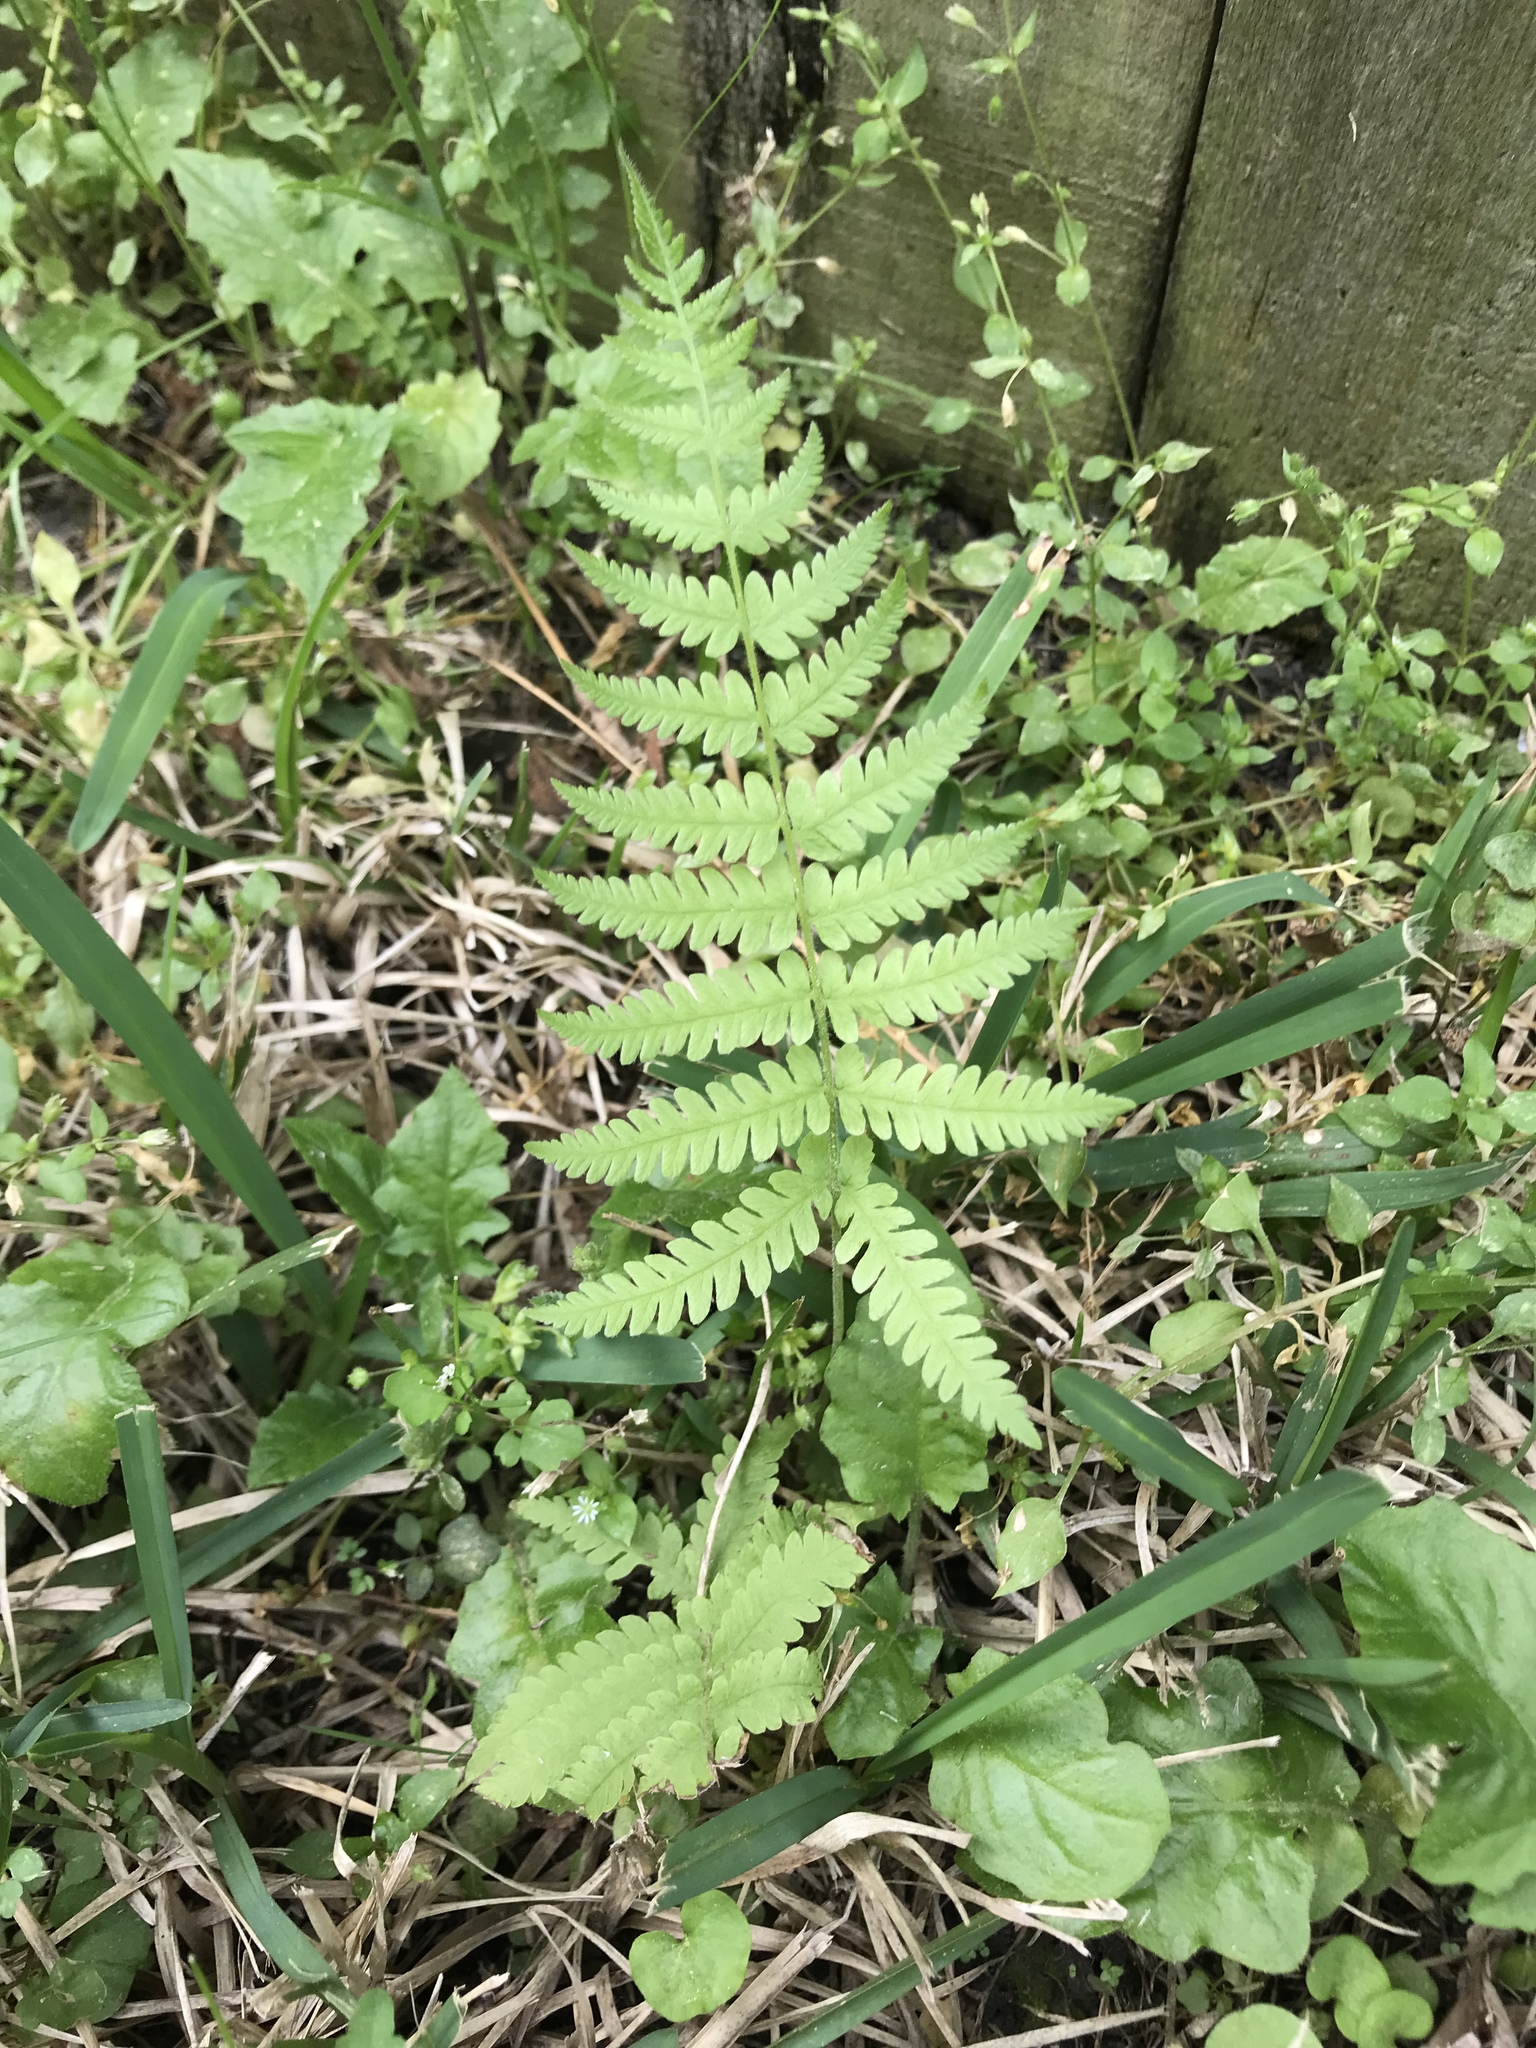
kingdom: Plantae
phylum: Tracheophyta
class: Polypodiopsida
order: Osmundales
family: Osmundaceae
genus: Osmundastrum
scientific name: Osmundastrum cinnamomeum
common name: Cinnamon fern
